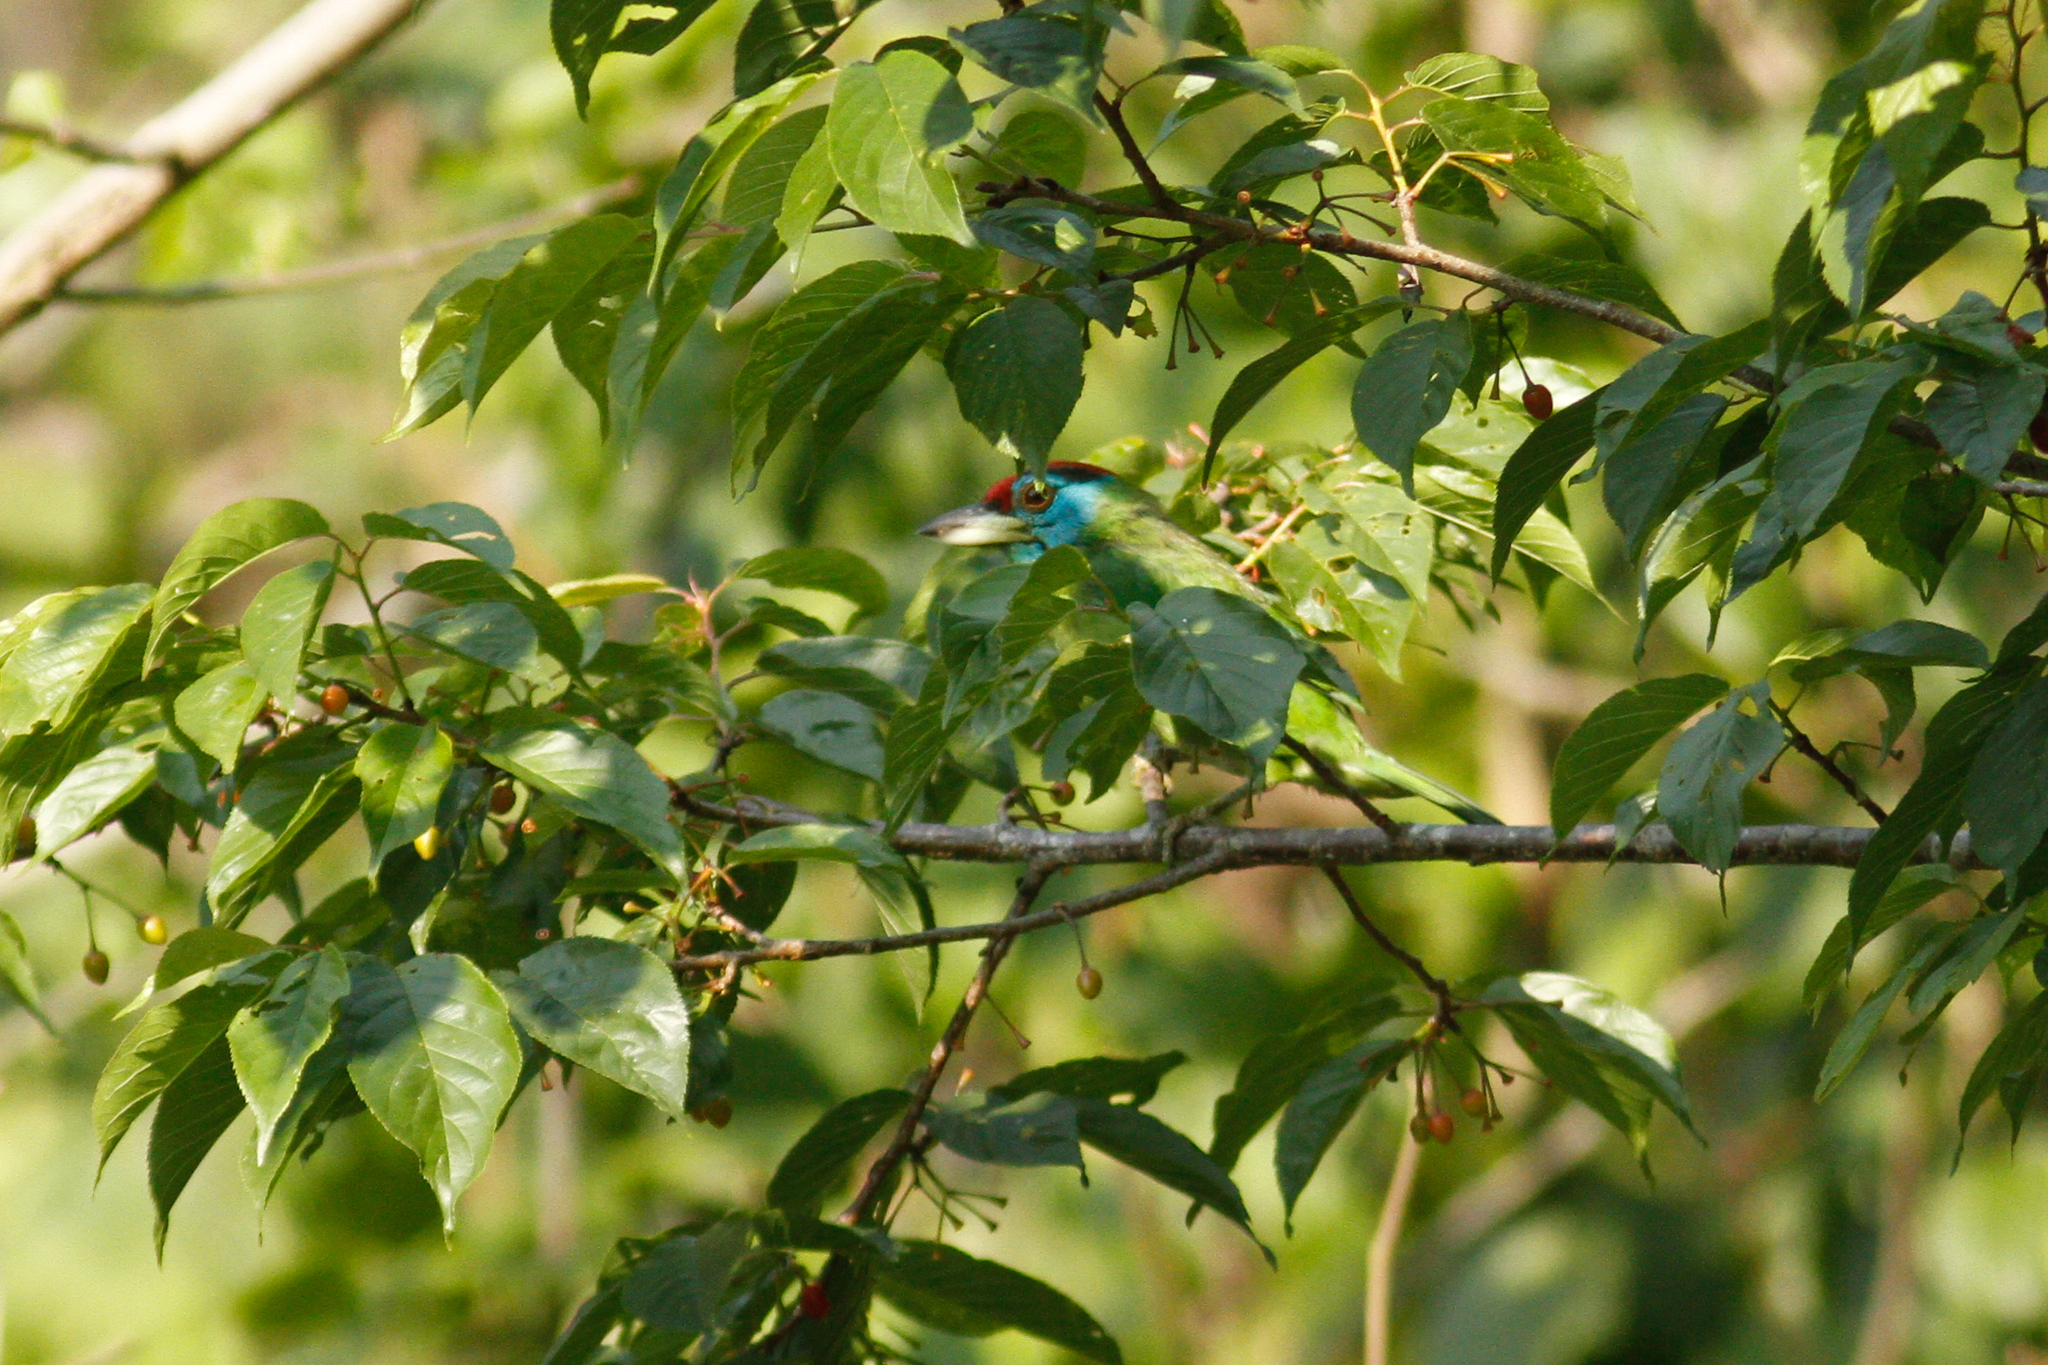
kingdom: Animalia
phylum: Chordata
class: Aves
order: Piciformes
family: Megalaimidae
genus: Psilopogon
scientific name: Psilopogon asiaticus
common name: Blue-throated barbet
